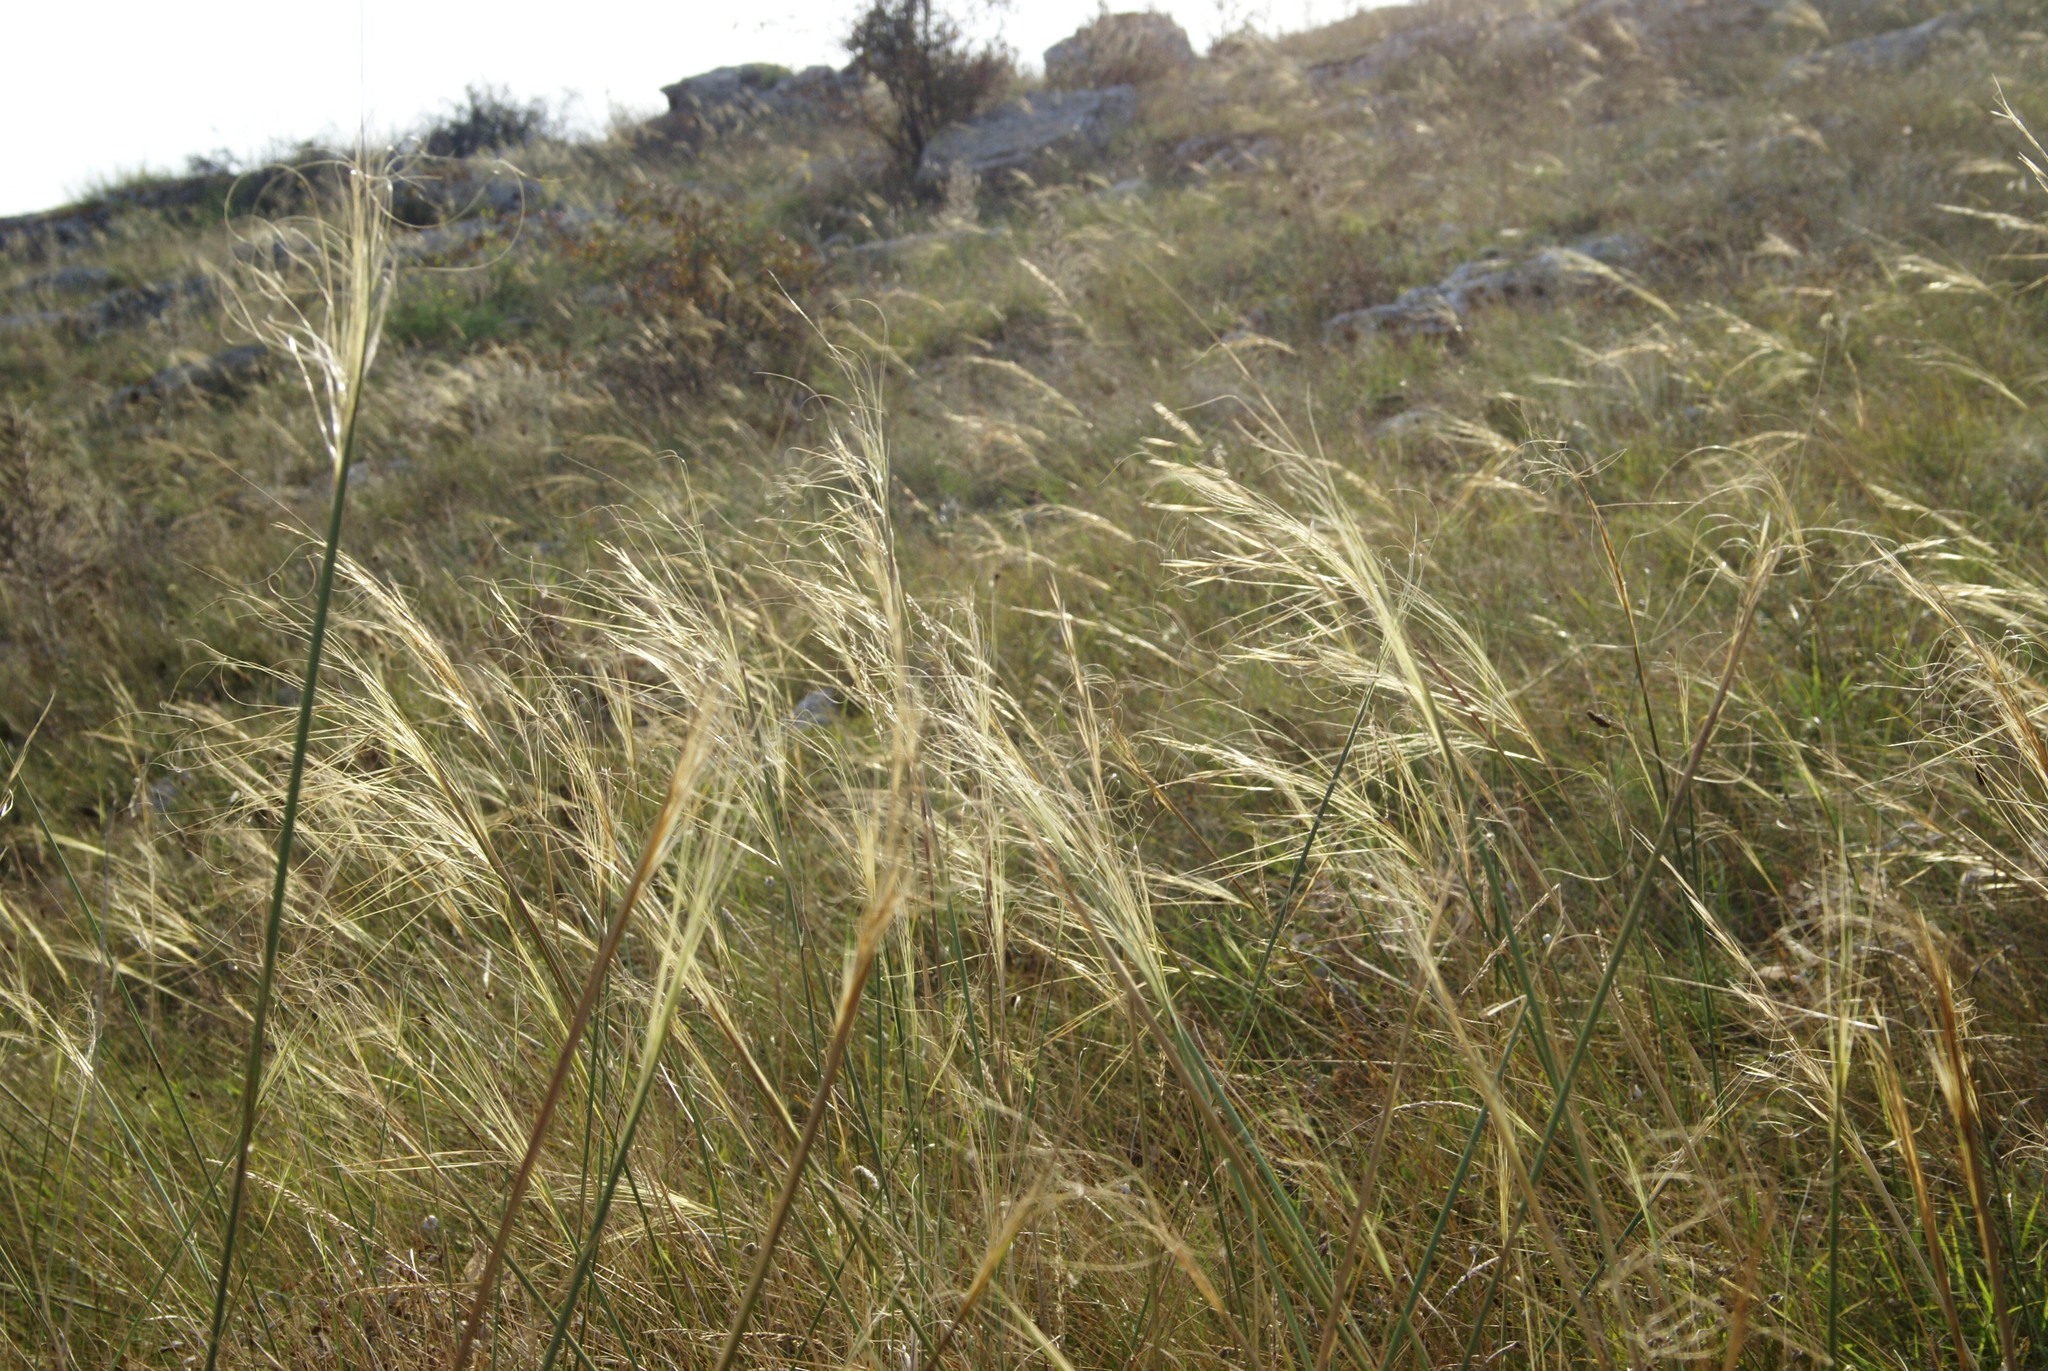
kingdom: Plantae
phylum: Tracheophyta
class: Liliopsida
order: Poales
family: Poaceae
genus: Stipa
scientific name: Stipa capillata
